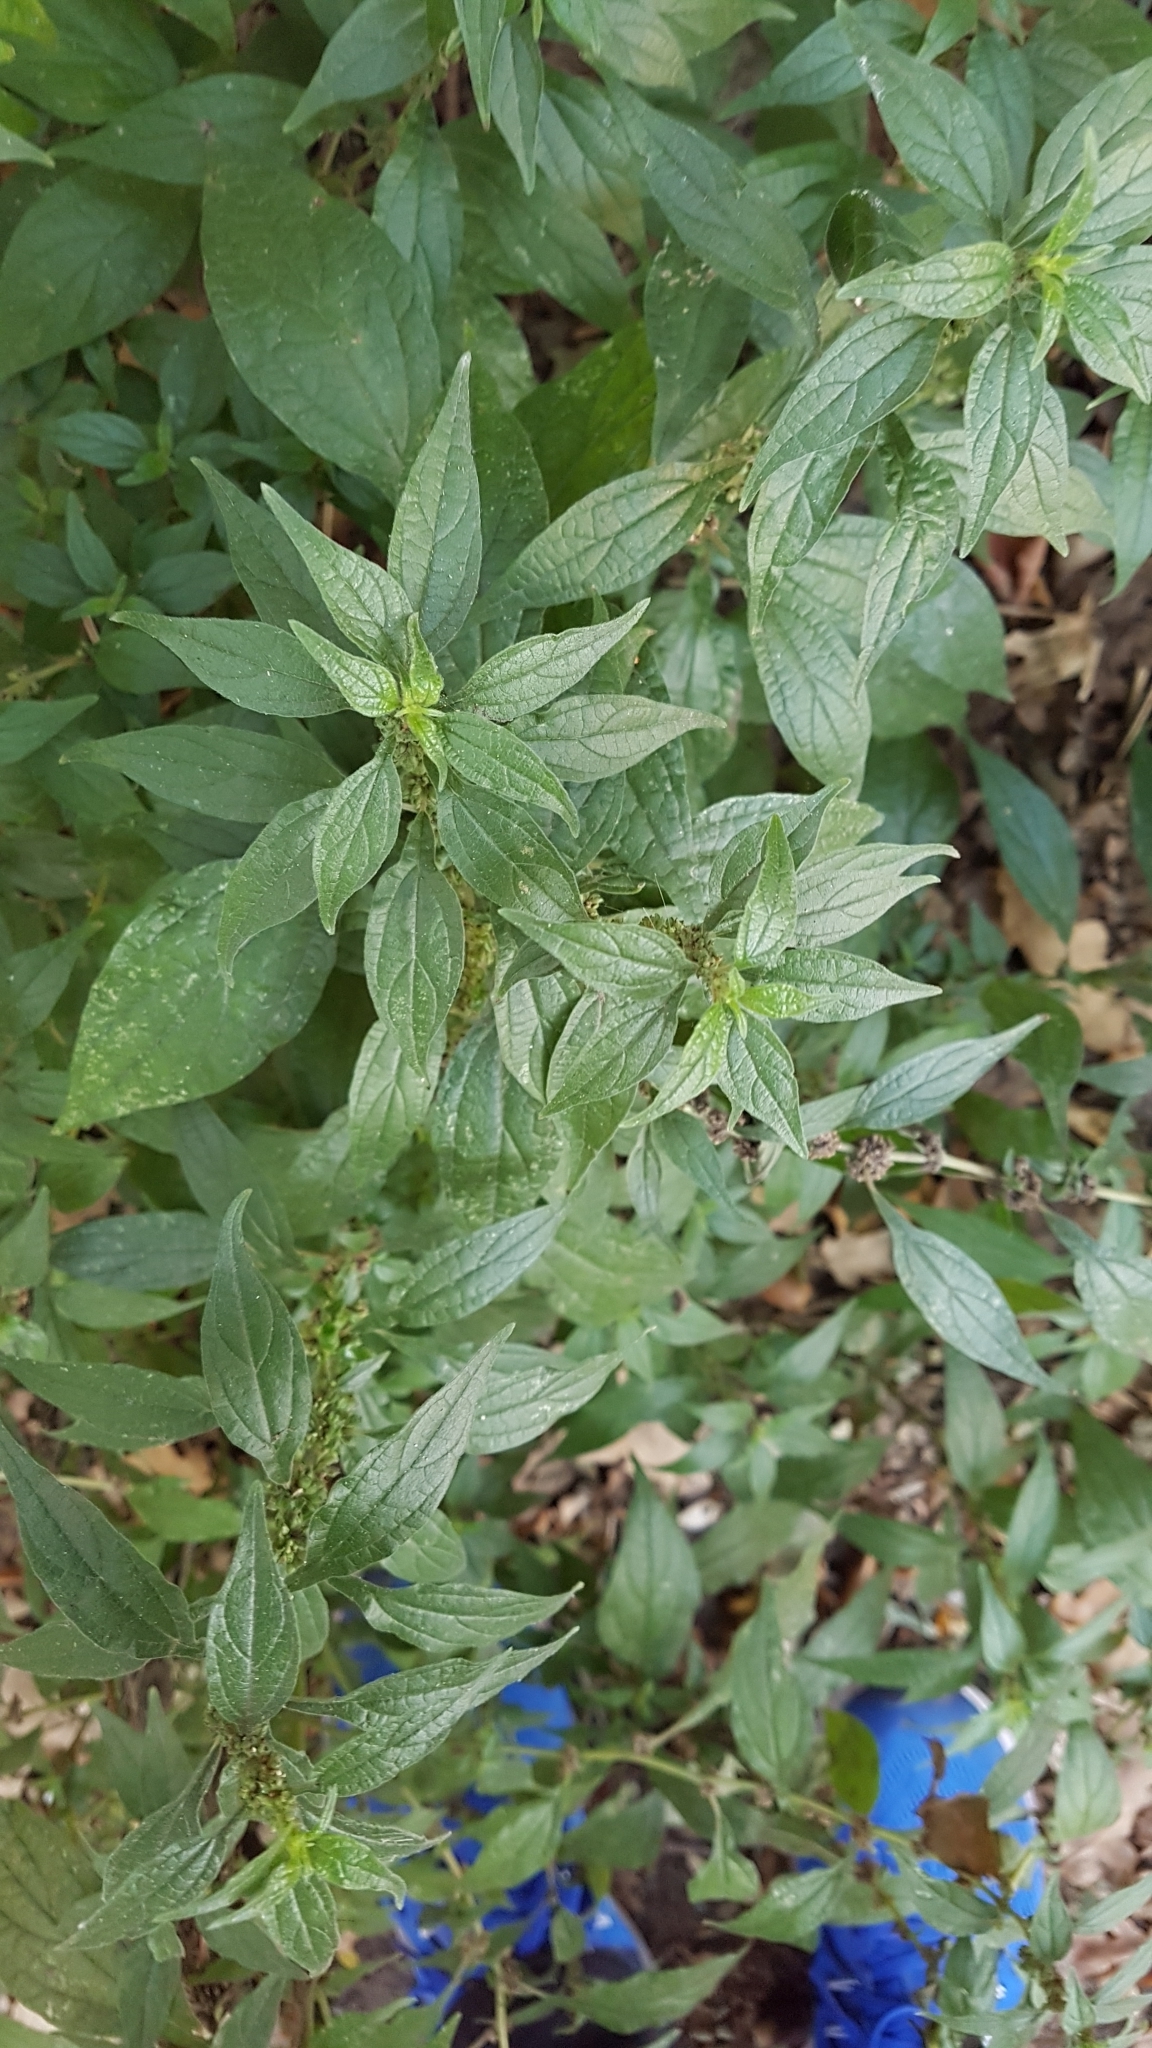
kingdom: Plantae
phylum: Tracheophyta
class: Magnoliopsida
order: Rosales
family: Urticaceae
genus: Parietaria
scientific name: Parietaria officinalis
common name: Eastern pellitory-of-the-wall
